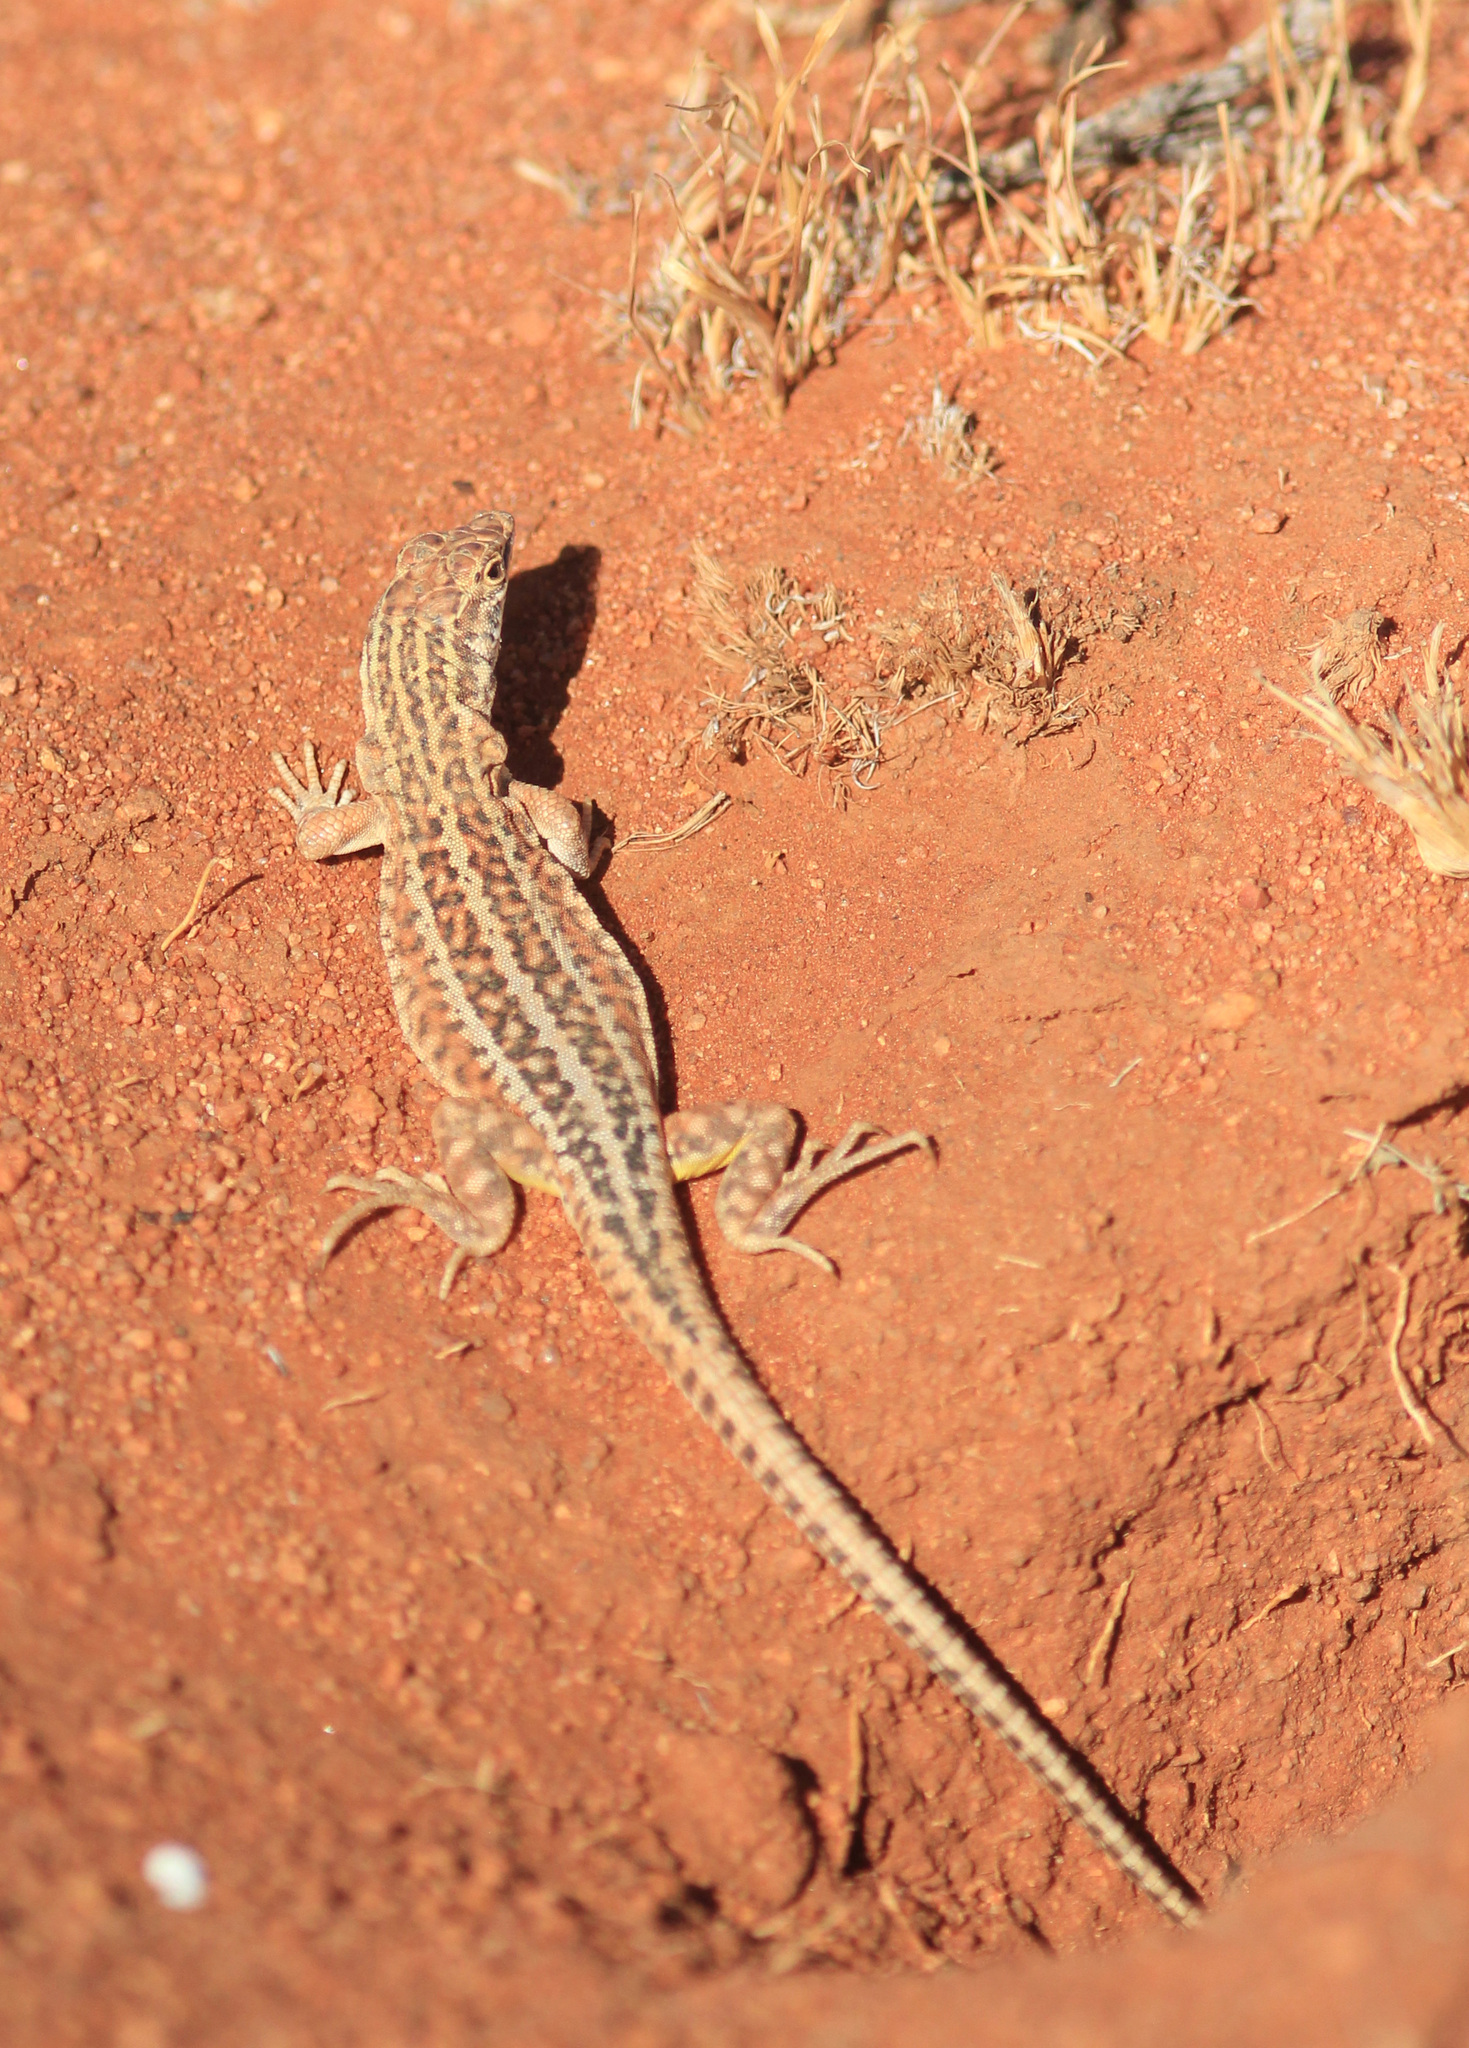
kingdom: Animalia
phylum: Chordata
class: Squamata
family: Lacertidae
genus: Meroles
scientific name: Meroles suborbitalis
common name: Spotted sand lizard
